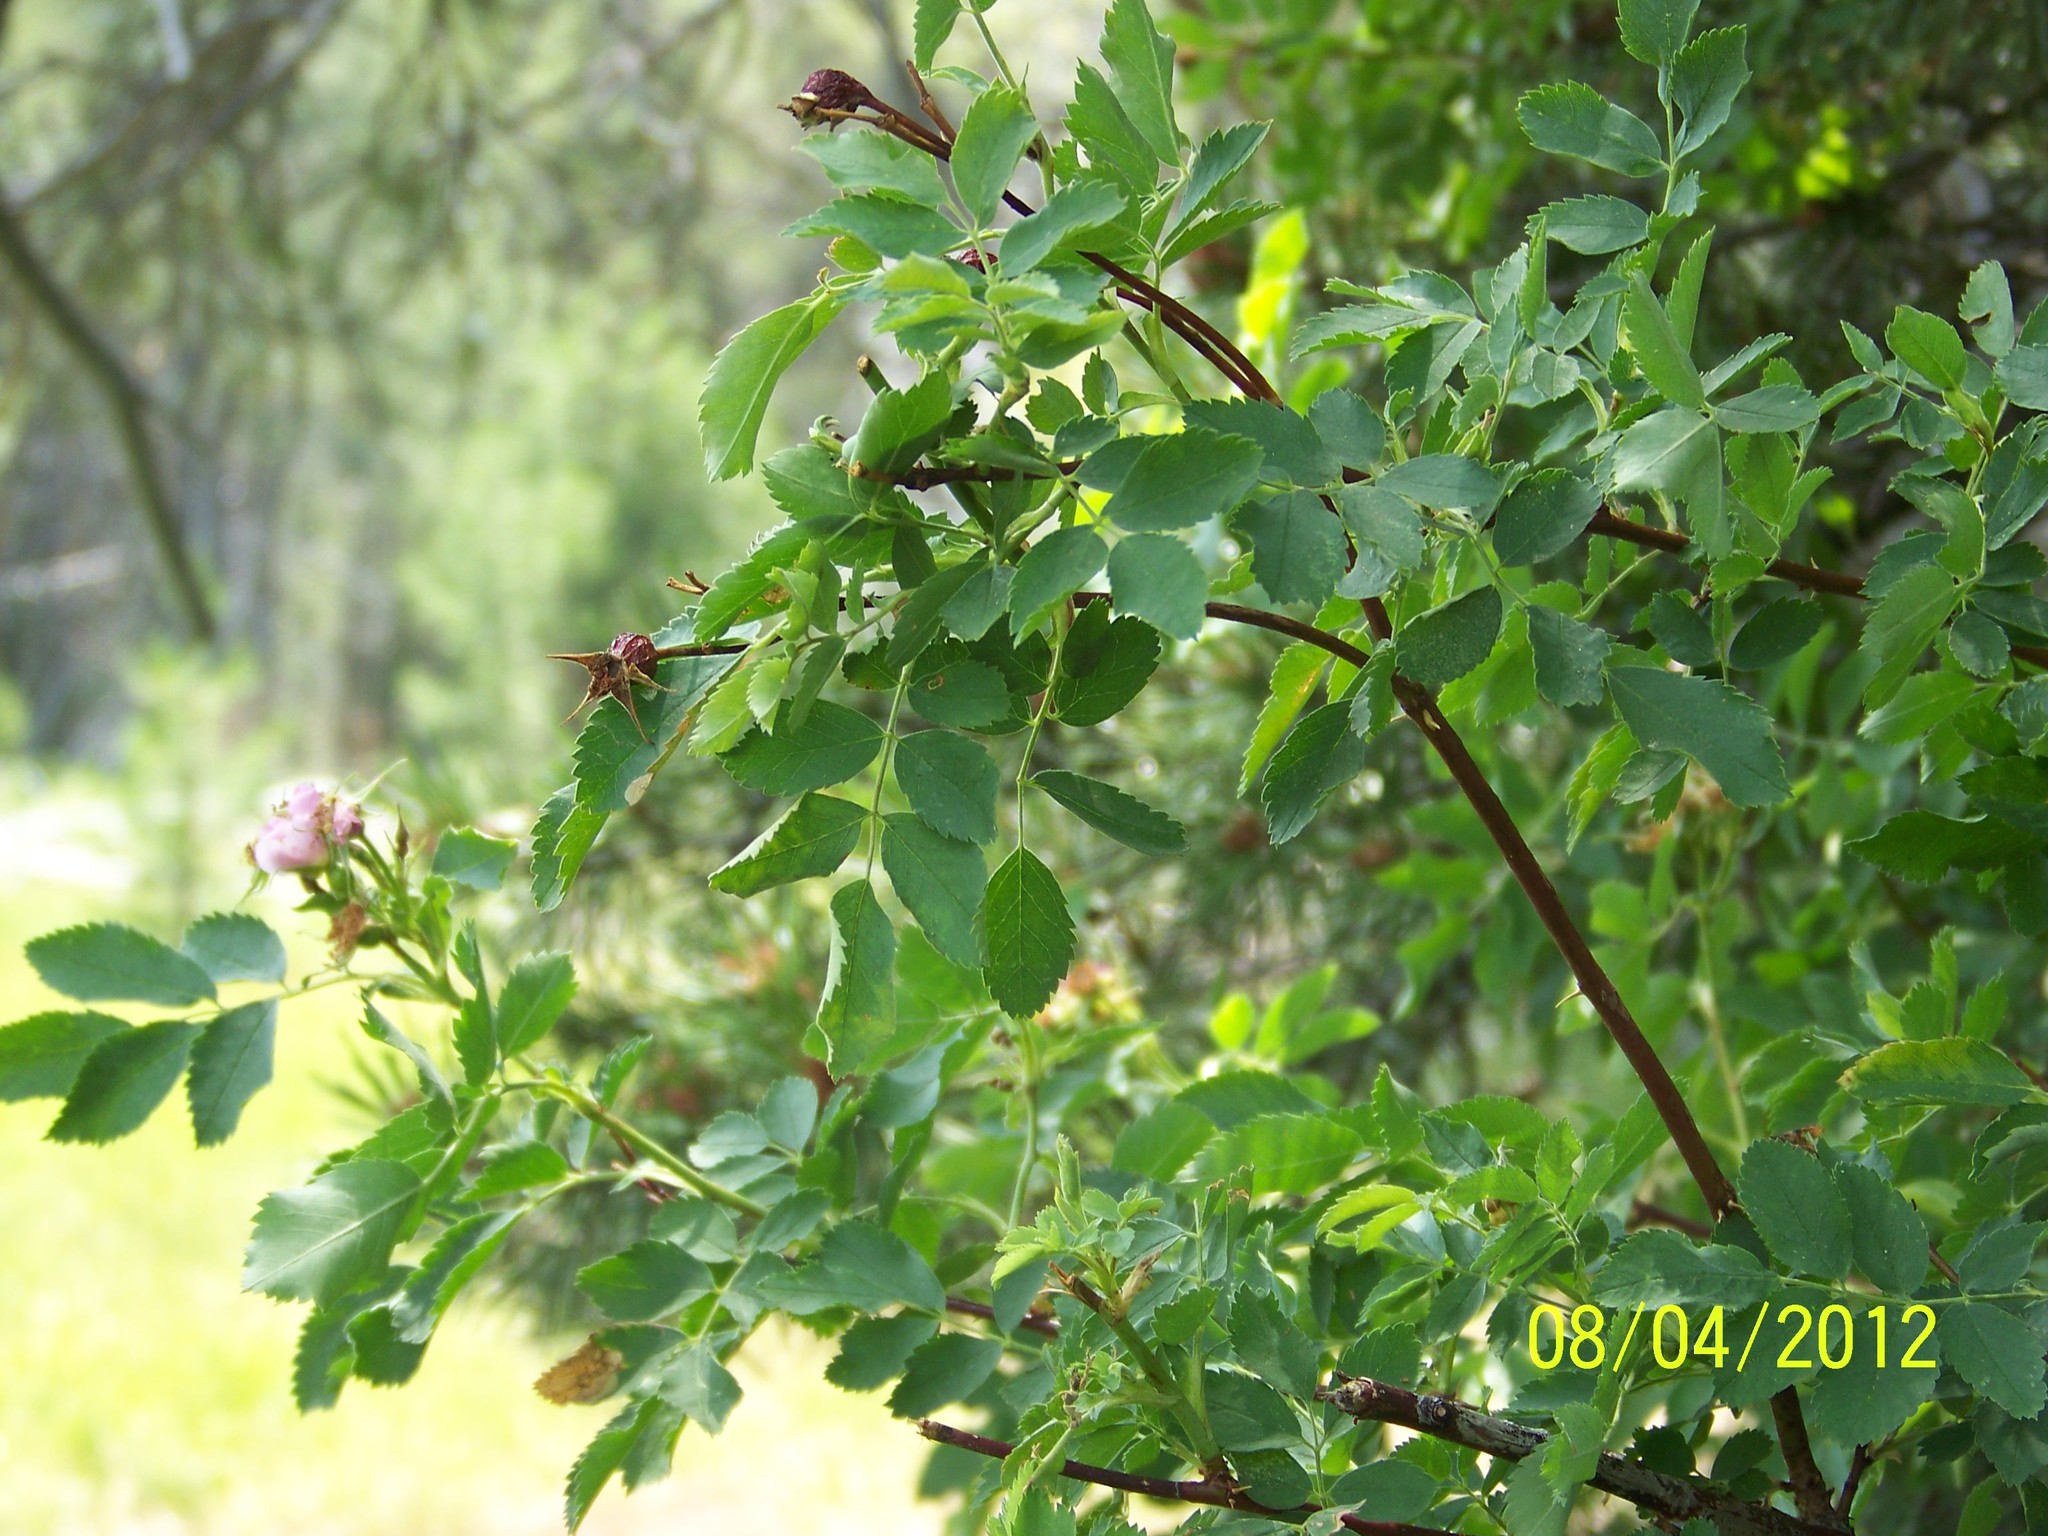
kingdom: Plantae
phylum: Tracheophyta
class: Magnoliopsida
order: Rosales
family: Rosaceae
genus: Rosa
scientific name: Rosa woodsii
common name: Woods's rose
